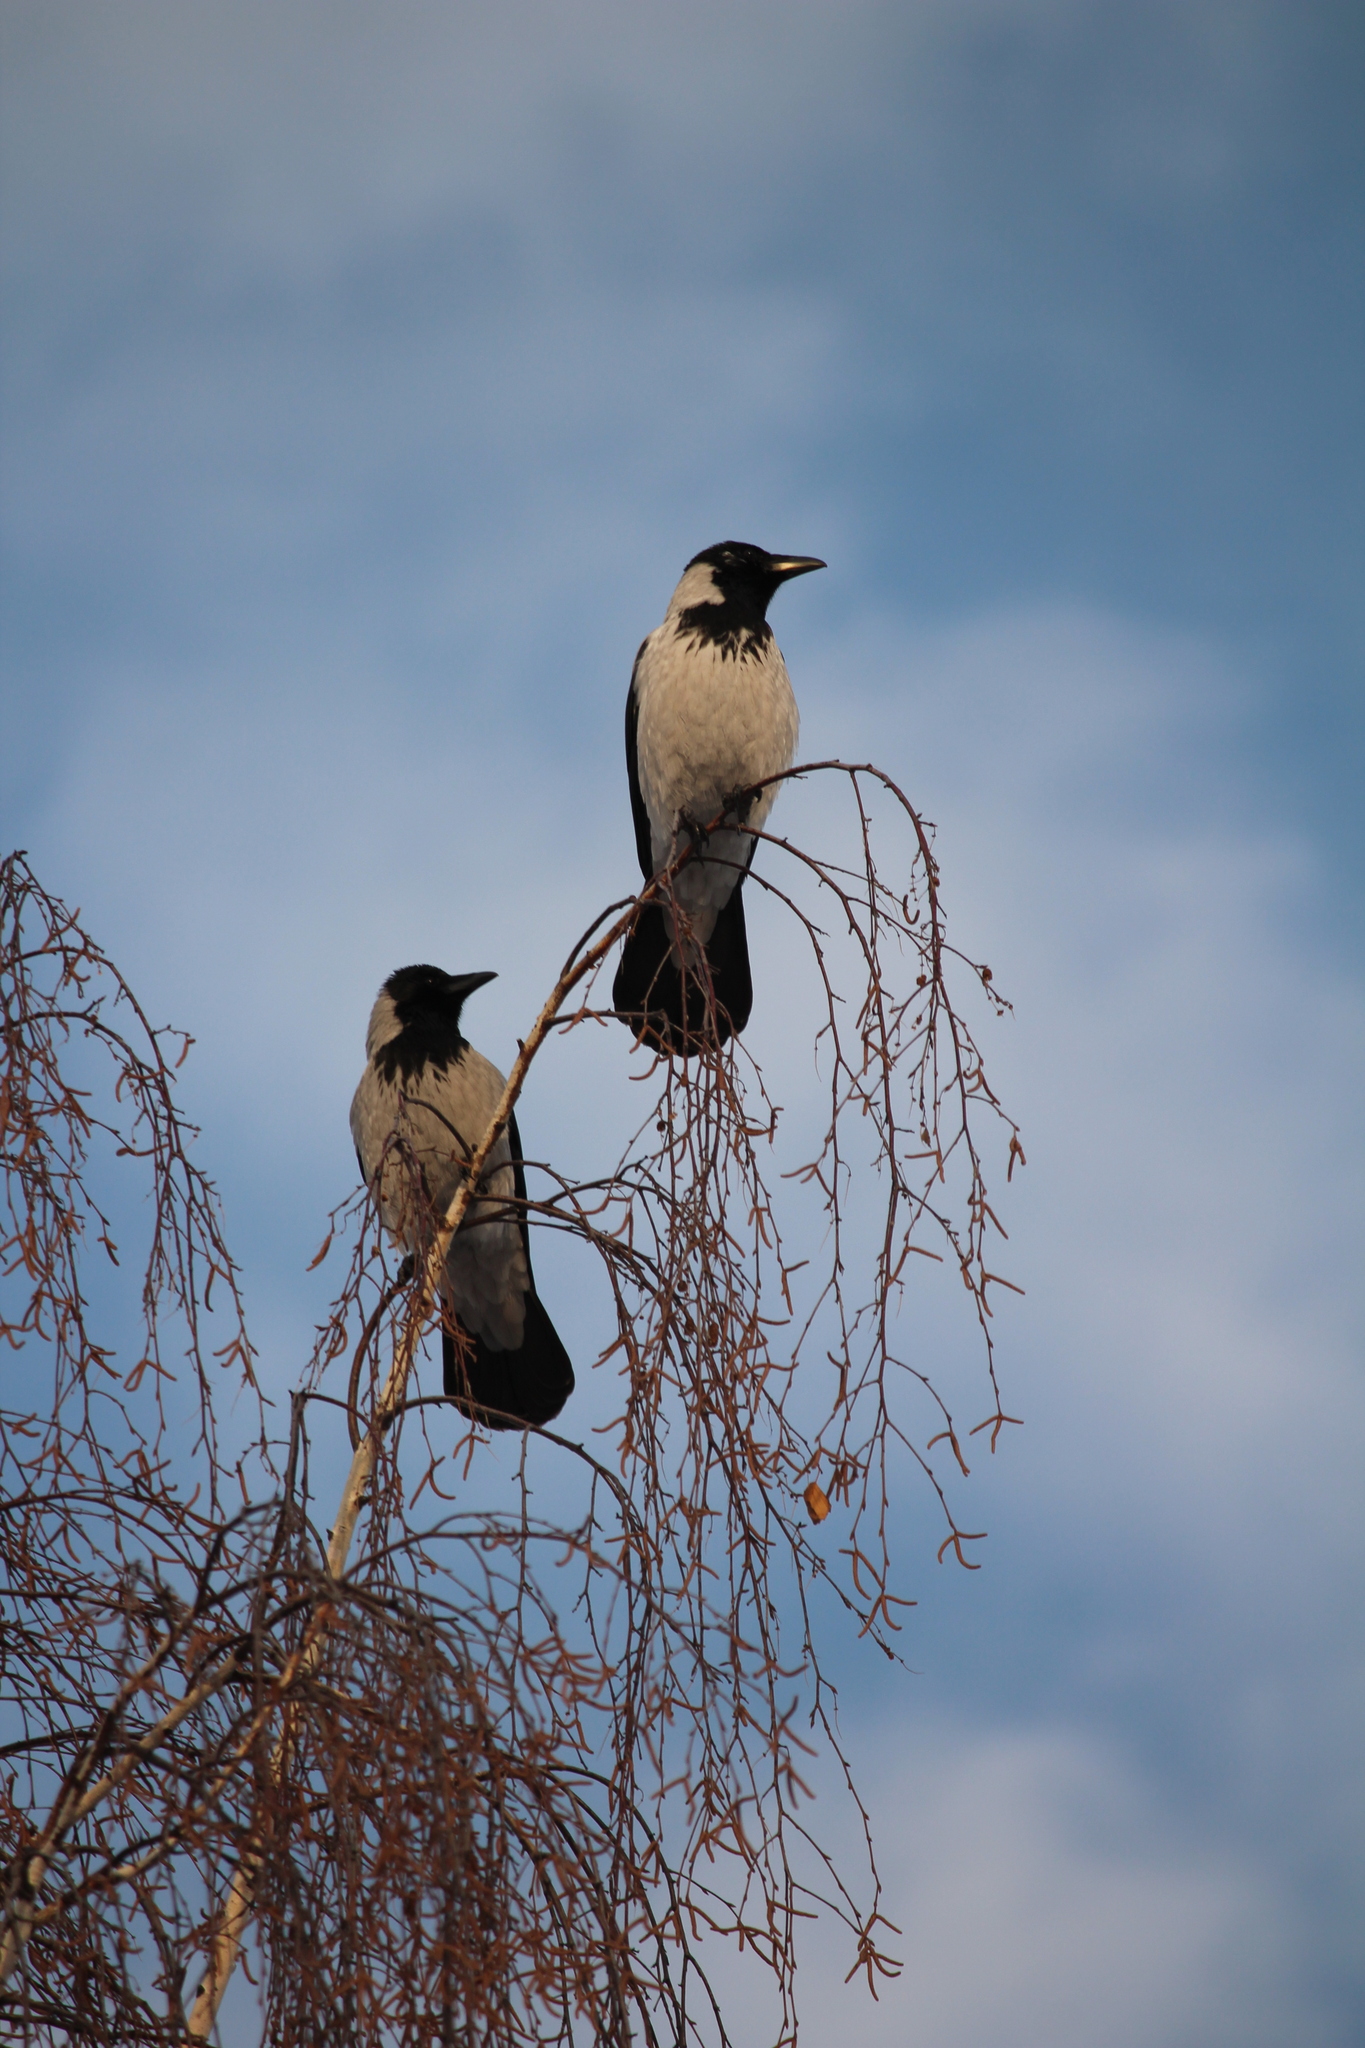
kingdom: Animalia
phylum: Chordata
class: Aves
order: Passeriformes
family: Corvidae
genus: Corvus
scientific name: Corvus cornix
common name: Hooded crow
